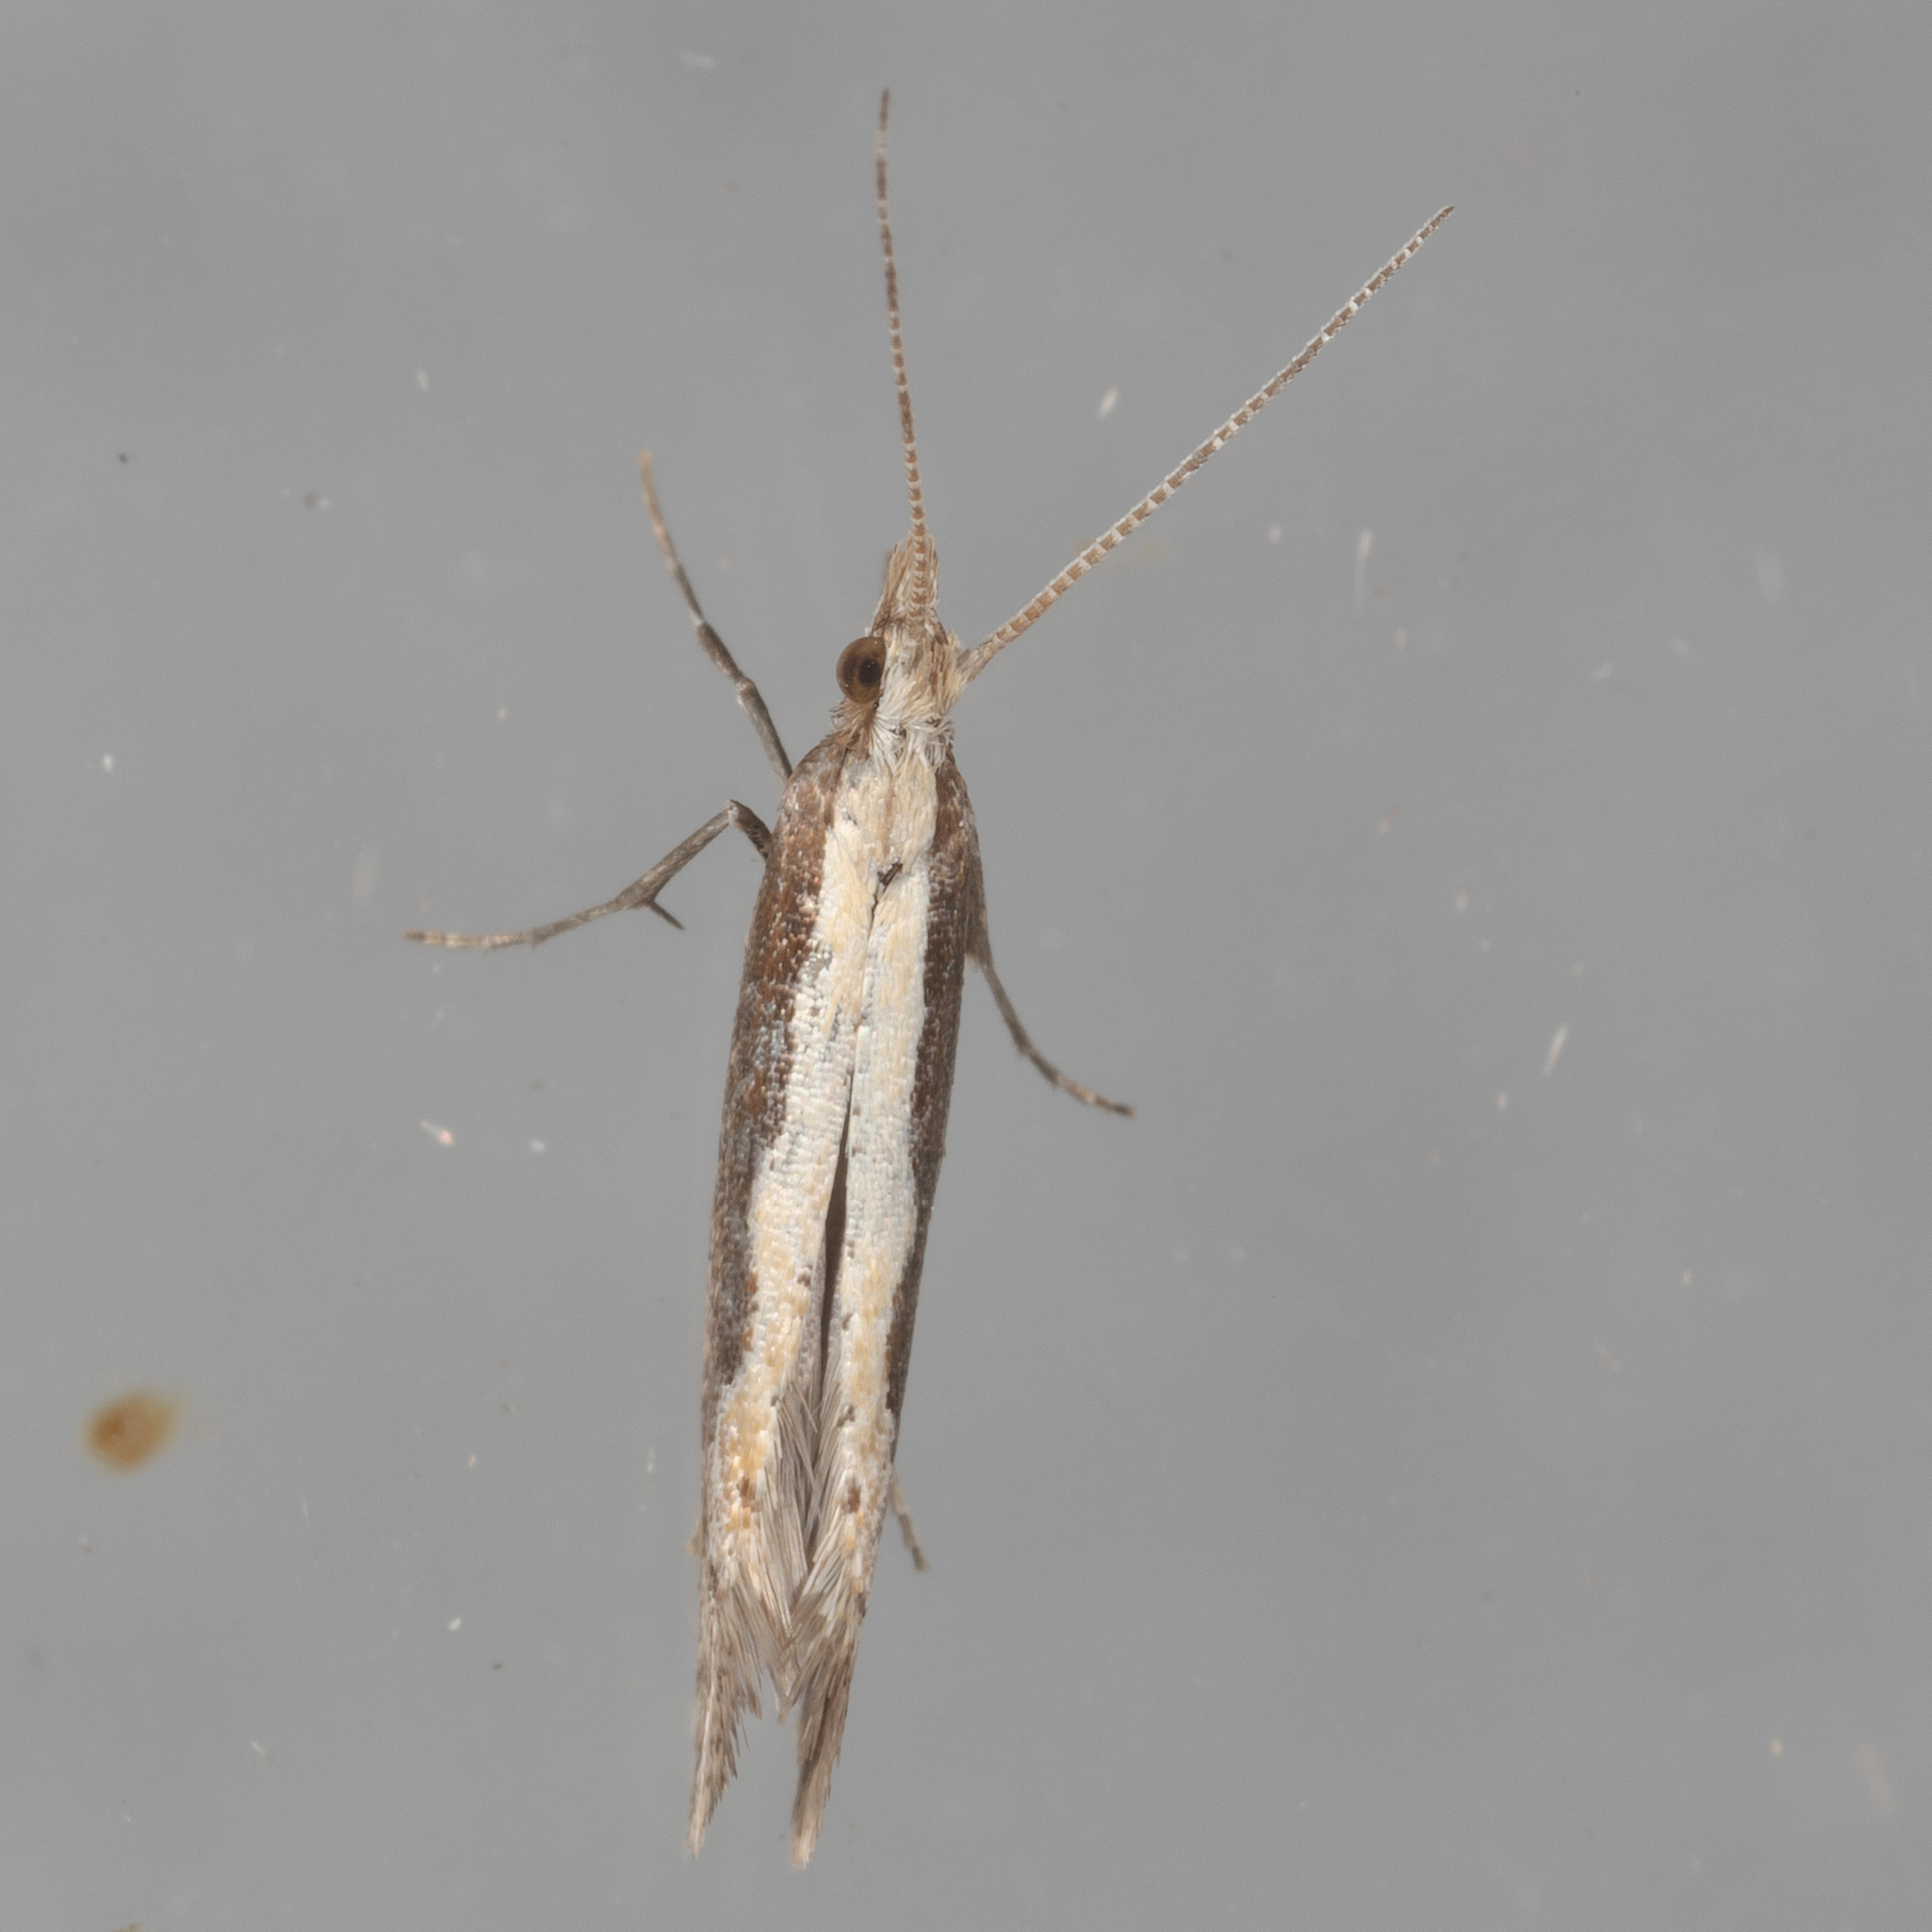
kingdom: Animalia
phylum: Arthropoda
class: Insecta
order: Lepidoptera
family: Plutellidae
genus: Plutella
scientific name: Plutella xylostella
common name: Diamond-back moth
